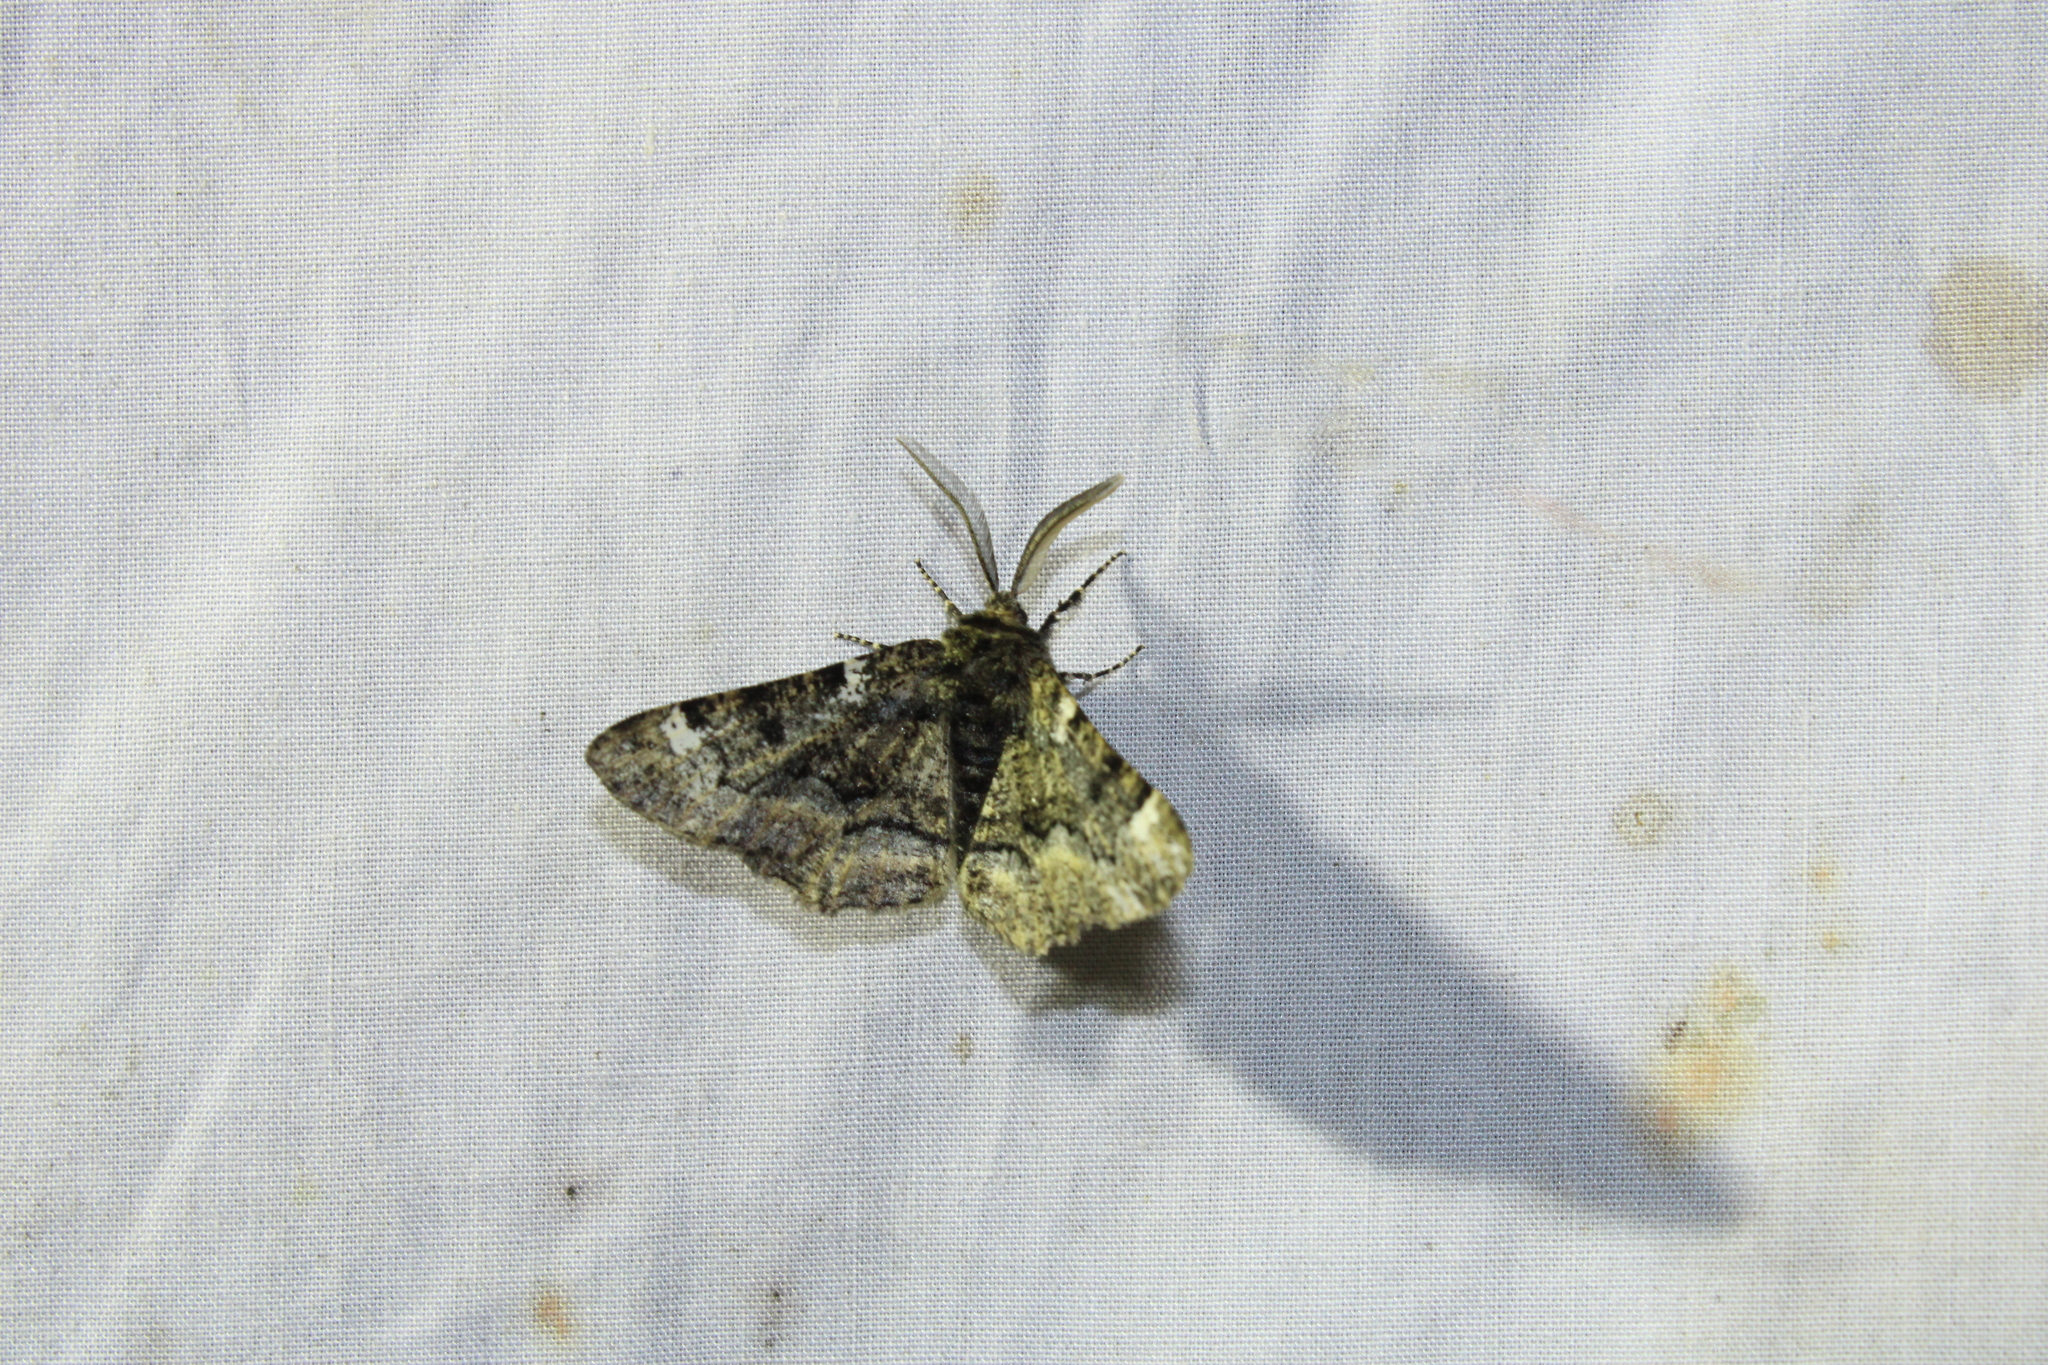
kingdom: Animalia
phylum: Arthropoda
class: Insecta
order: Lepidoptera
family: Geometridae
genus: Phaeoura
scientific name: Phaeoura quernaria
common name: Oak beauty
